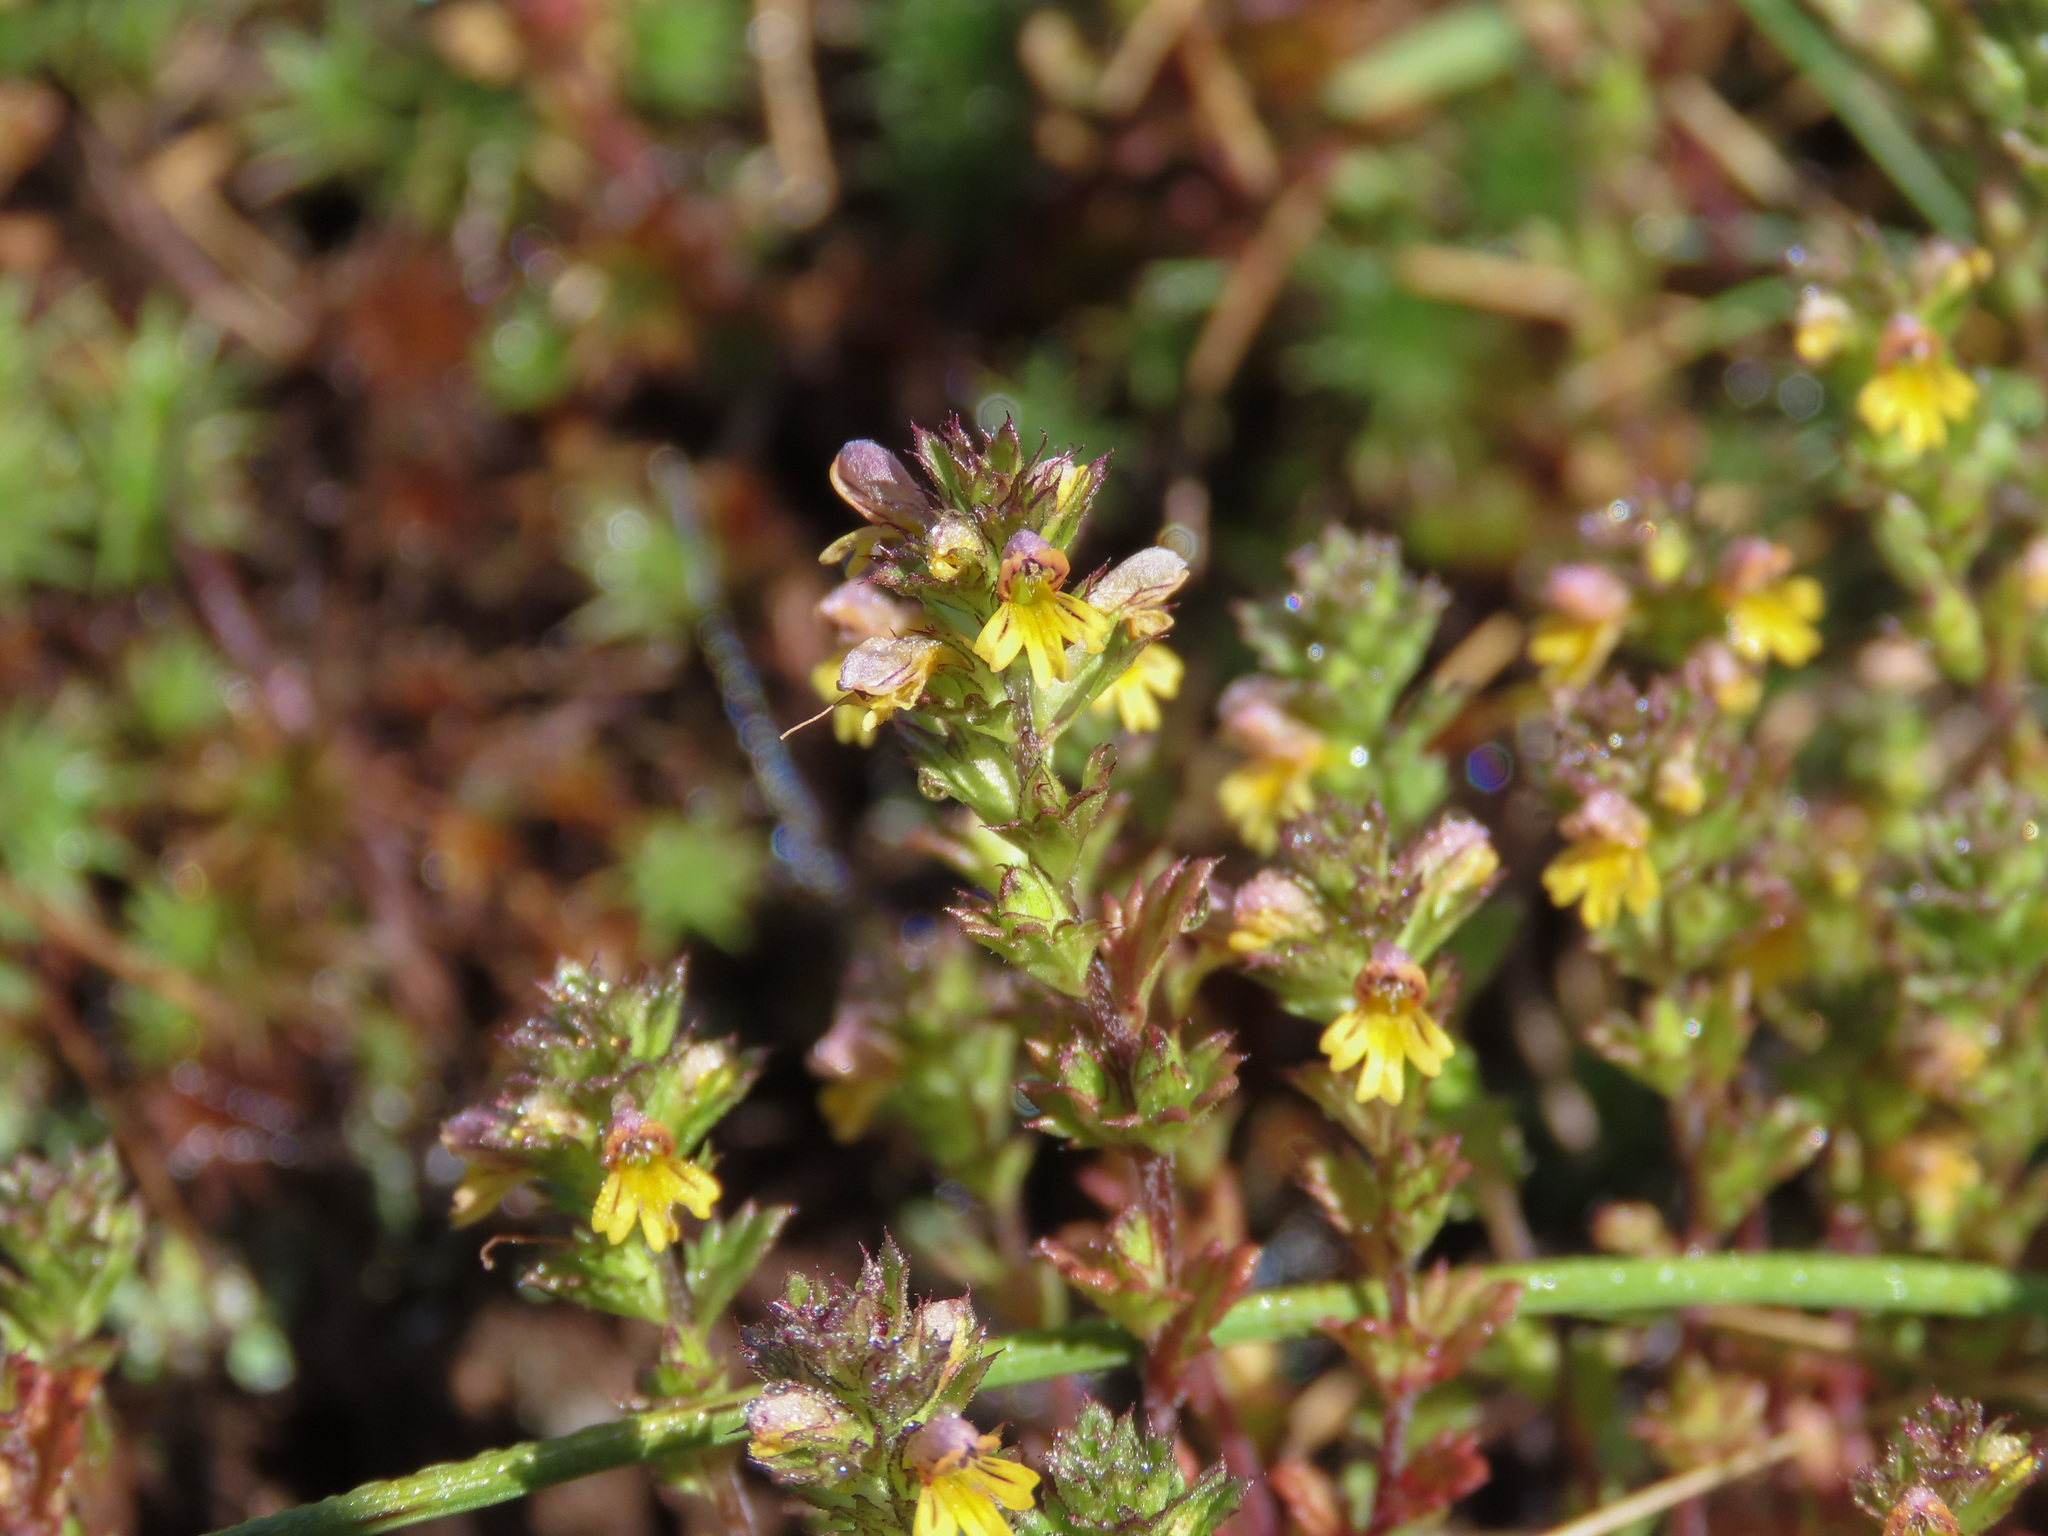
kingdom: Plantae
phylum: Tracheophyta
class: Magnoliopsida
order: Lamiales
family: Orobanchaceae
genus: Euphrasia
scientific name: Euphrasia minima
